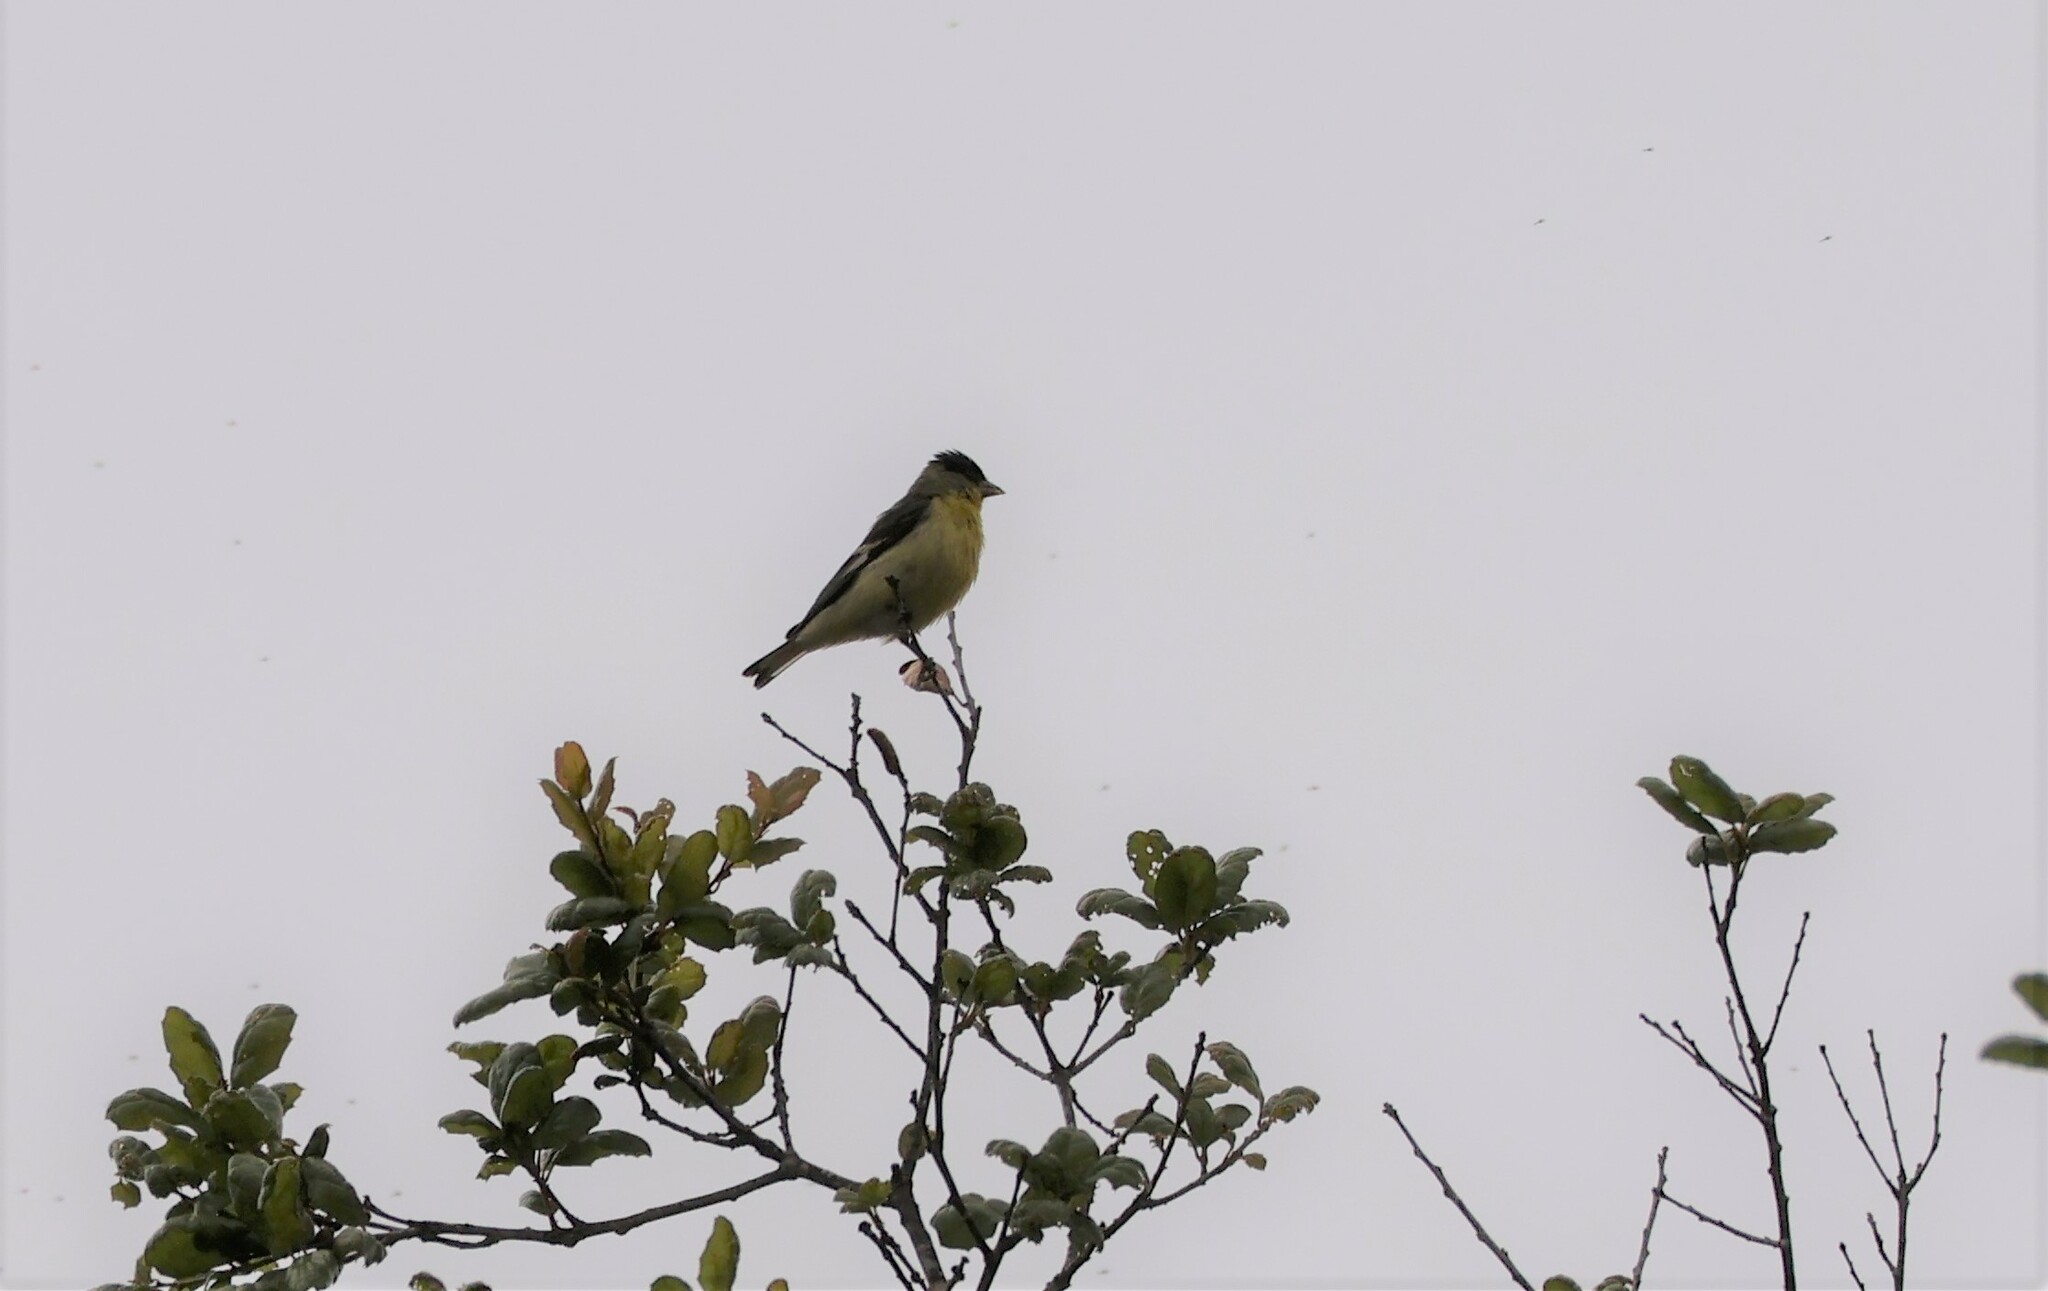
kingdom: Animalia
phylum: Chordata
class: Aves
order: Passeriformes
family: Fringillidae
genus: Spinus
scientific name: Spinus psaltria
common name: Lesser goldfinch
